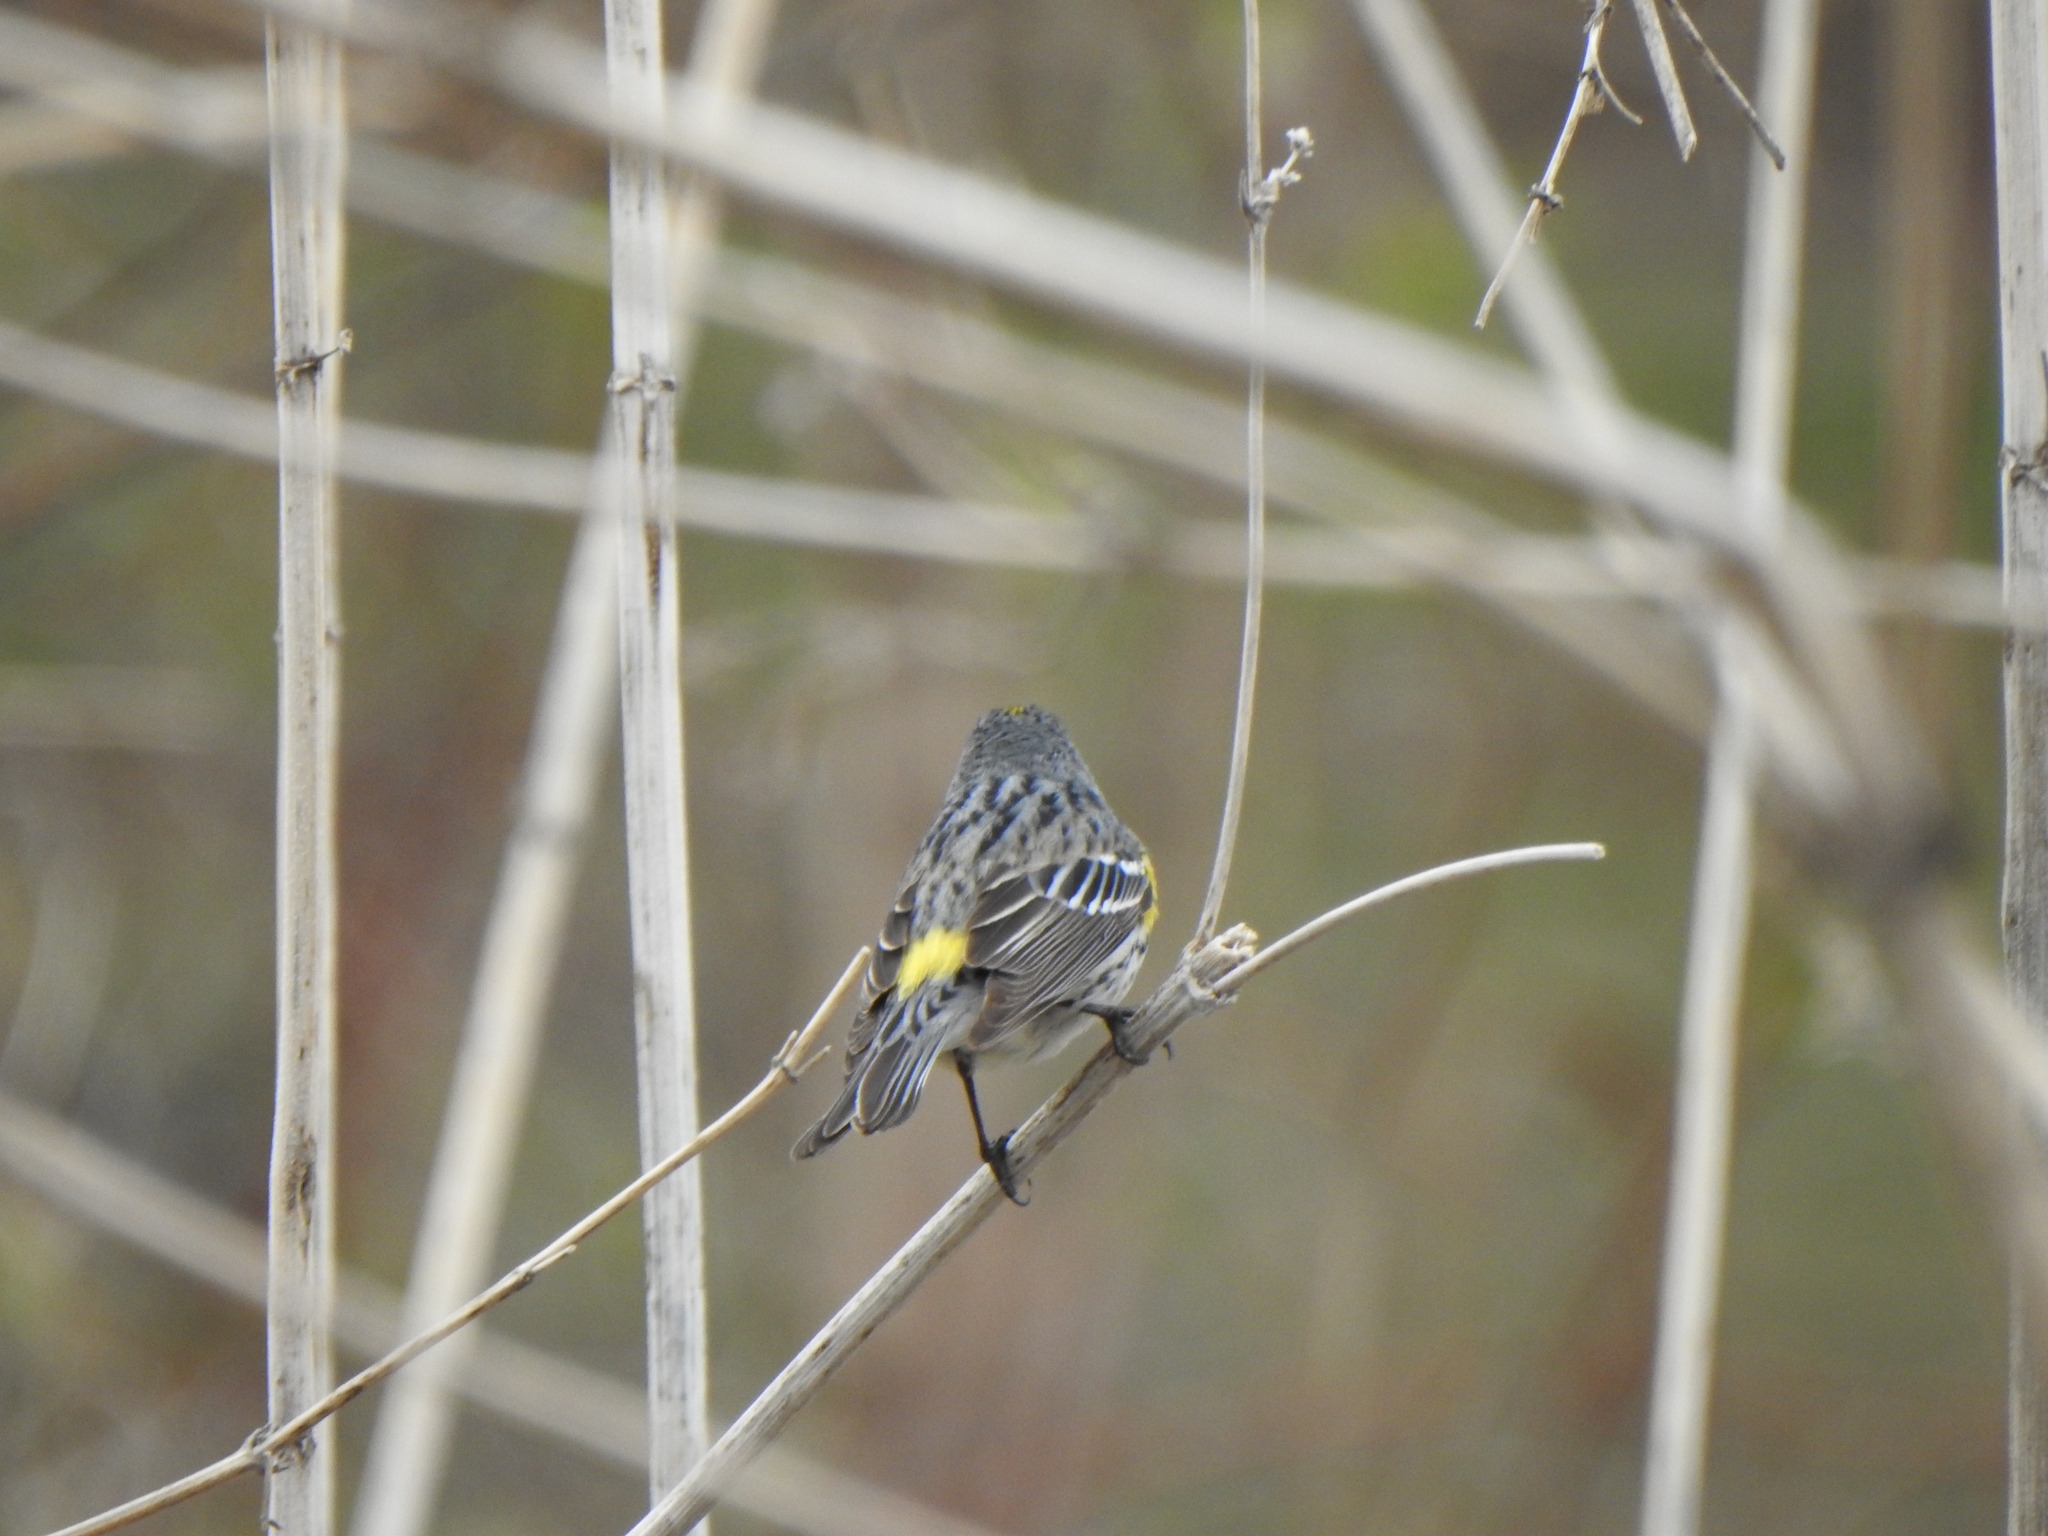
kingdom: Animalia
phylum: Chordata
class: Aves
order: Passeriformes
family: Parulidae
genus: Setophaga
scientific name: Setophaga coronata
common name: Myrtle warbler
